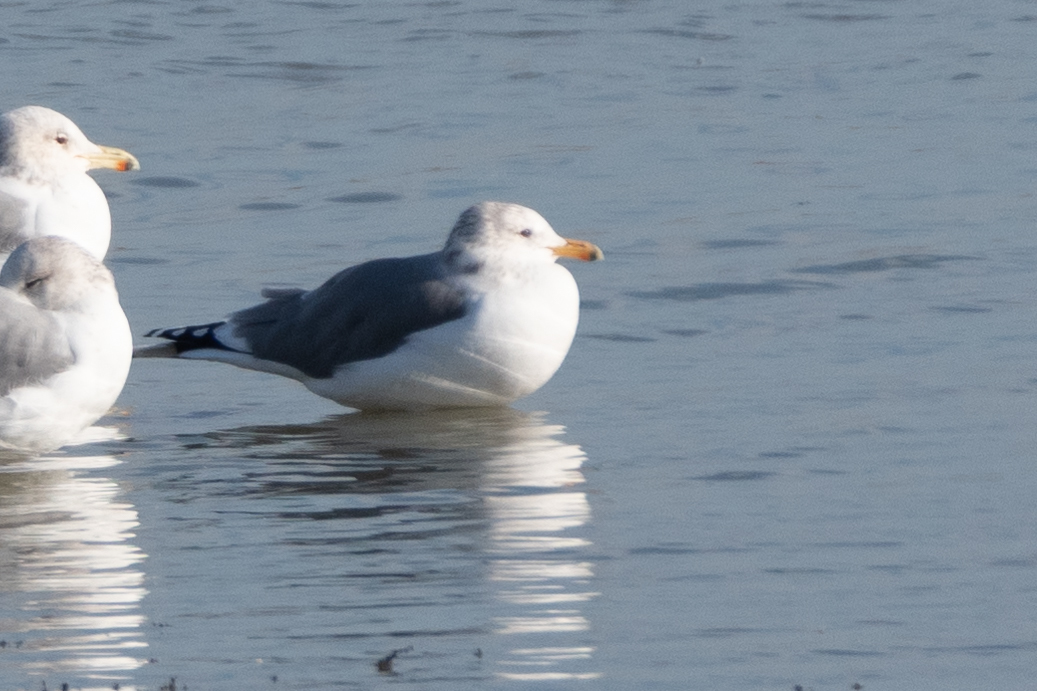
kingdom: Animalia
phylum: Chordata
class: Aves
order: Charadriiformes
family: Laridae
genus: Larus
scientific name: Larus californicus
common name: California gull
